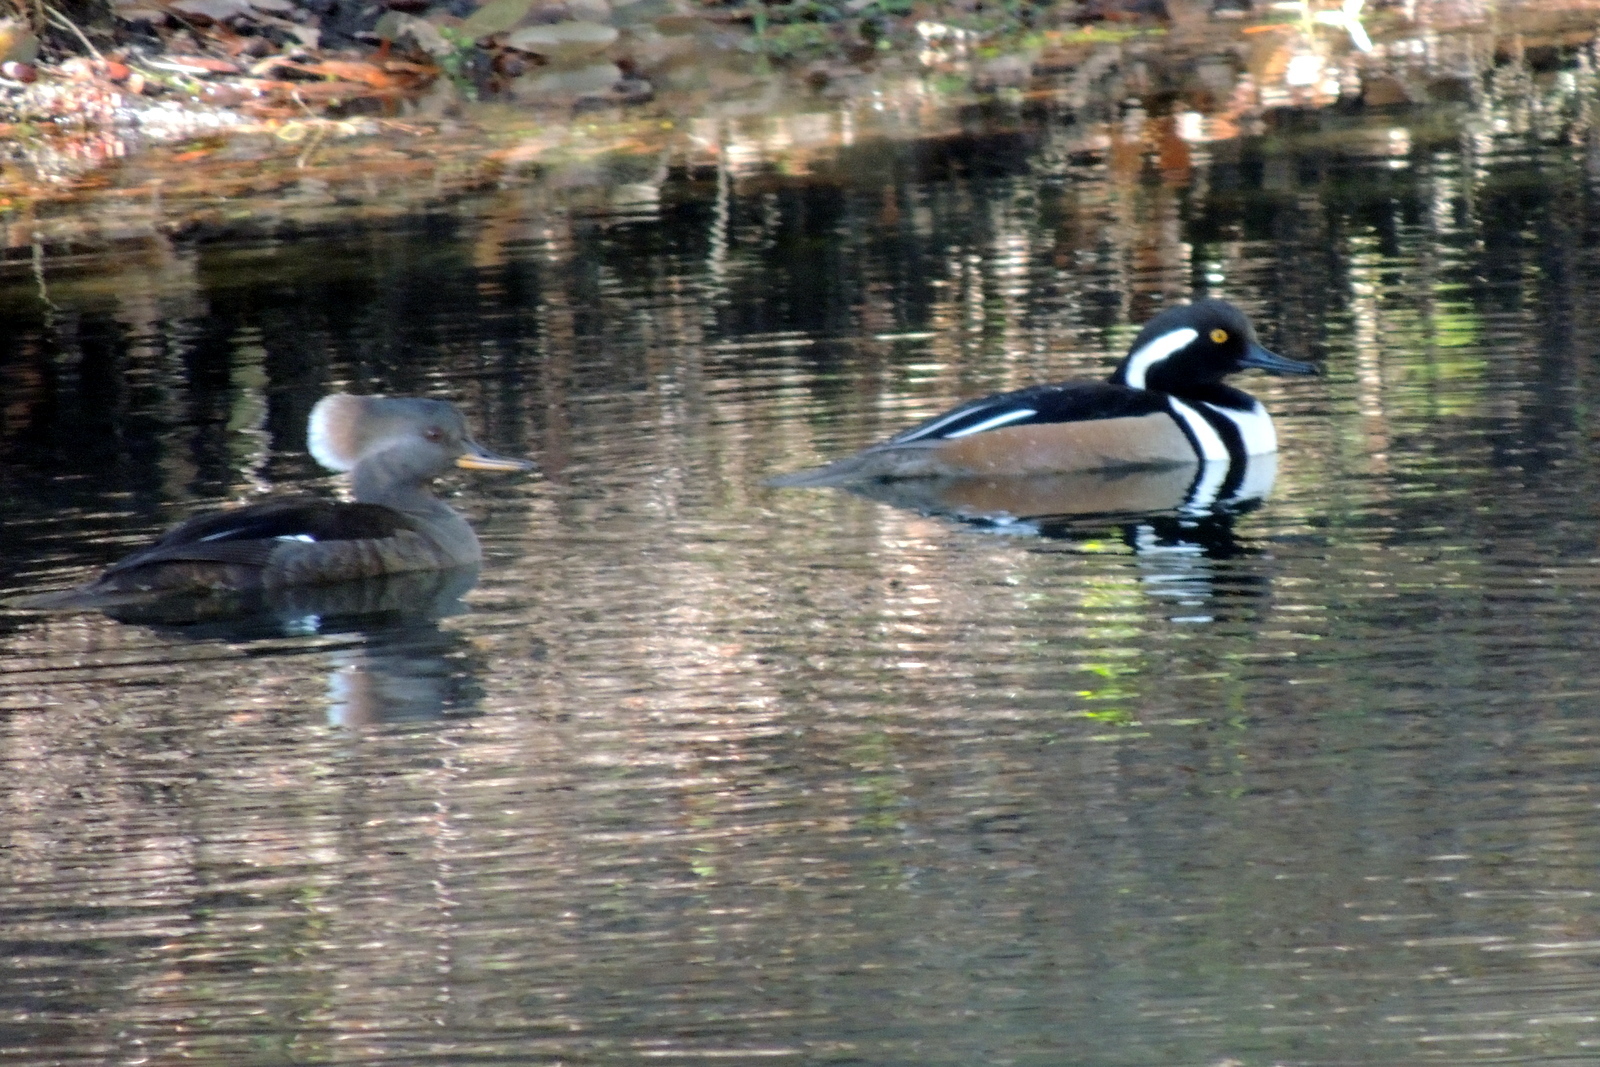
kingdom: Animalia
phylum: Chordata
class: Aves
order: Anseriformes
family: Anatidae
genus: Lophodytes
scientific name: Lophodytes cucullatus
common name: Hooded merganser
